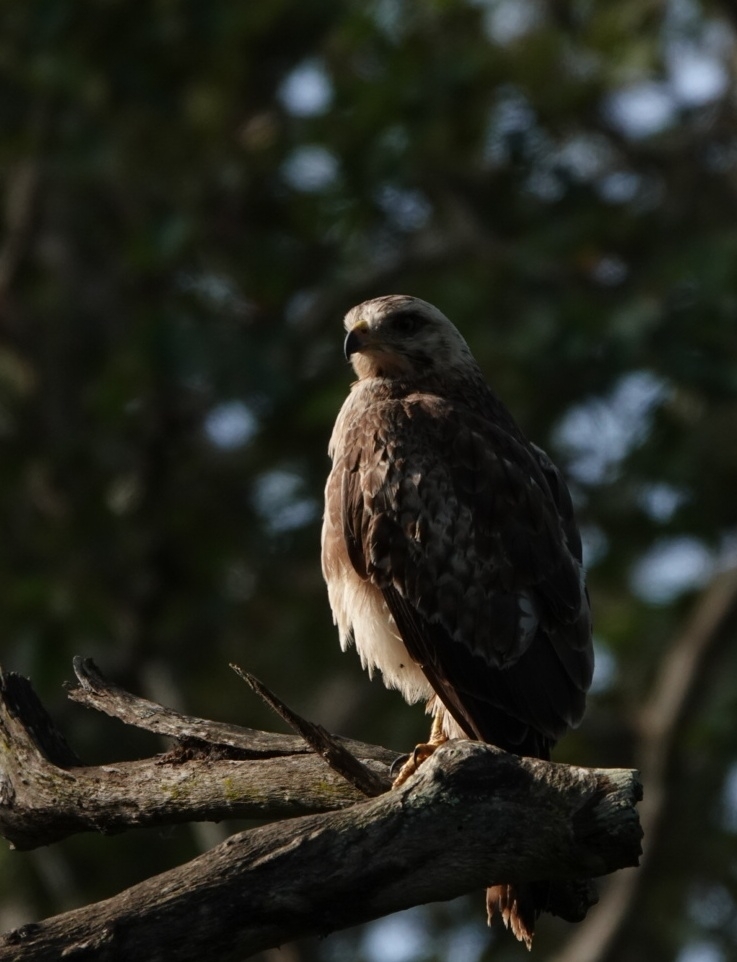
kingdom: Animalia
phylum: Chordata
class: Aves
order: Accipitriformes
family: Accipitridae
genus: Butastur
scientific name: Butastur teesa
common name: White-eyed buzzard
